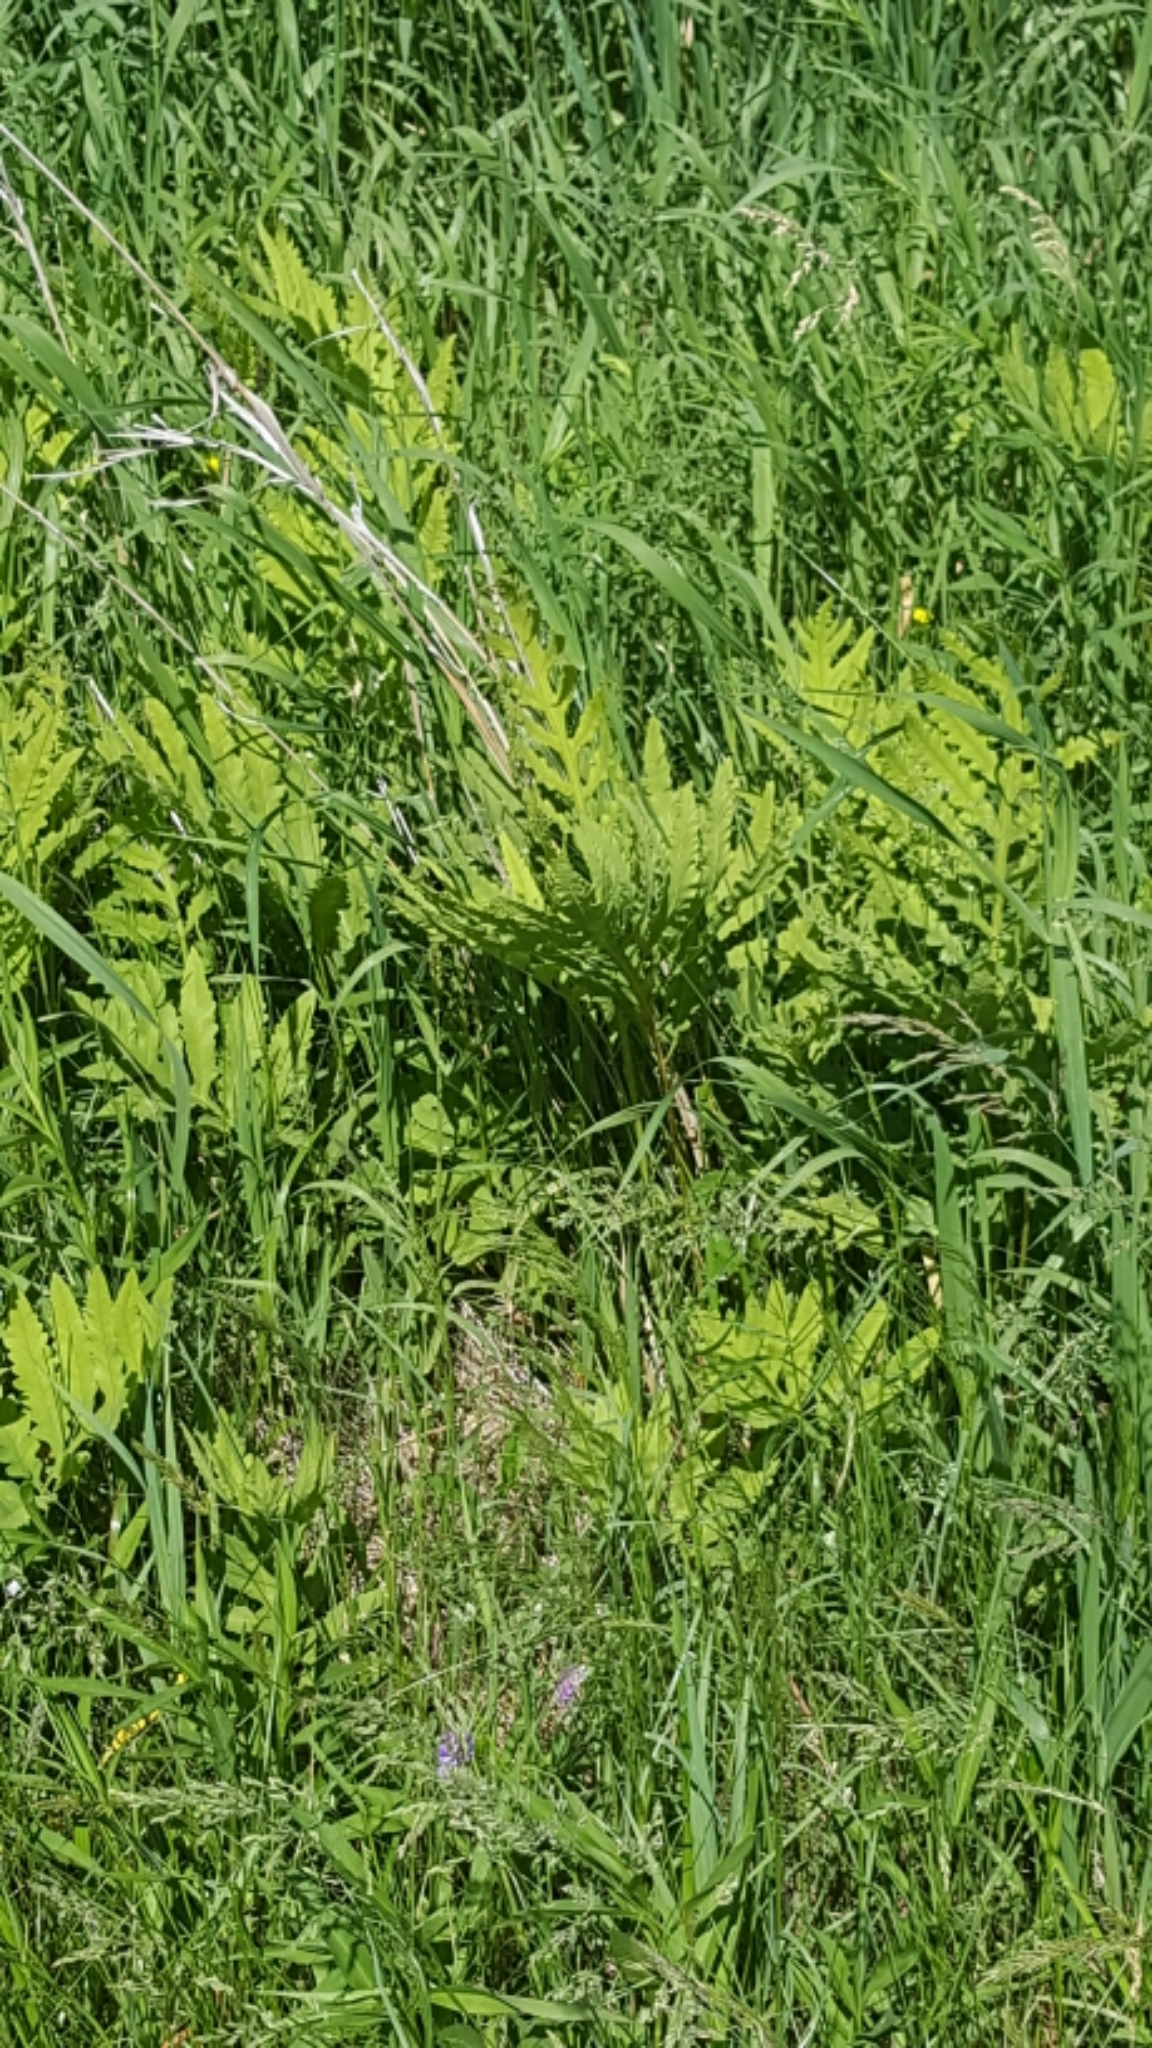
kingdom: Plantae
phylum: Tracheophyta
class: Polypodiopsida
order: Polypodiales
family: Onocleaceae
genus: Onoclea
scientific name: Onoclea sensibilis
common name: Sensitive fern
